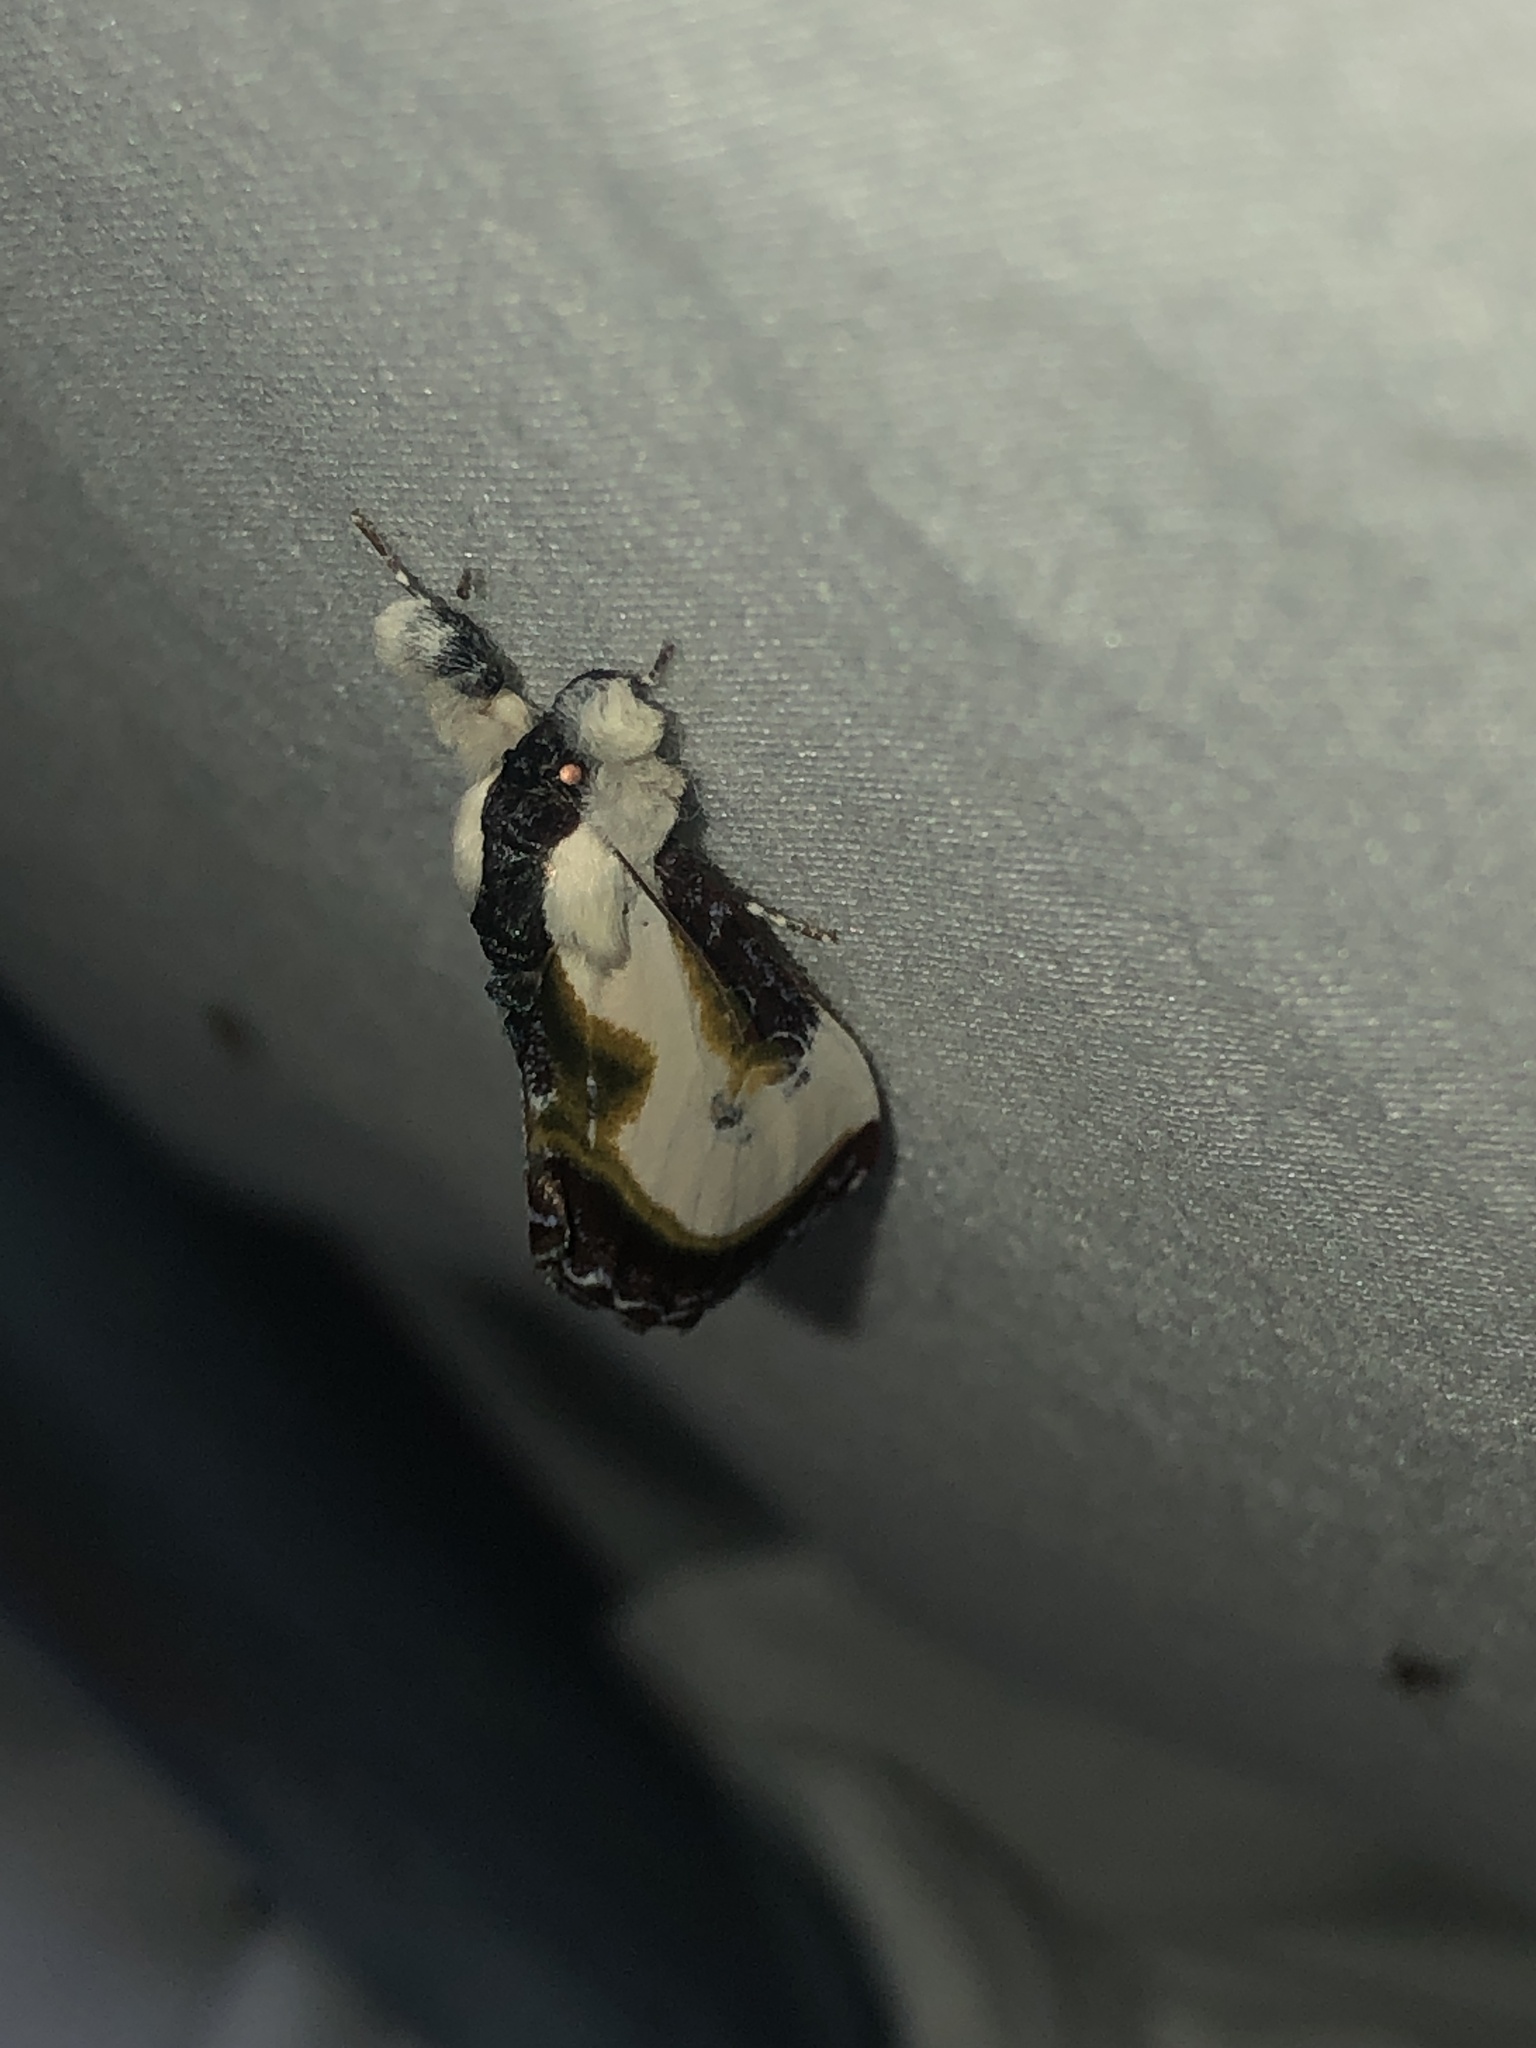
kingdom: Animalia
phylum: Arthropoda
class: Insecta
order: Lepidoptera
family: Noctuidae
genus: Eudryas
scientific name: Eudryas grata
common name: Beautiful wood-nymph
